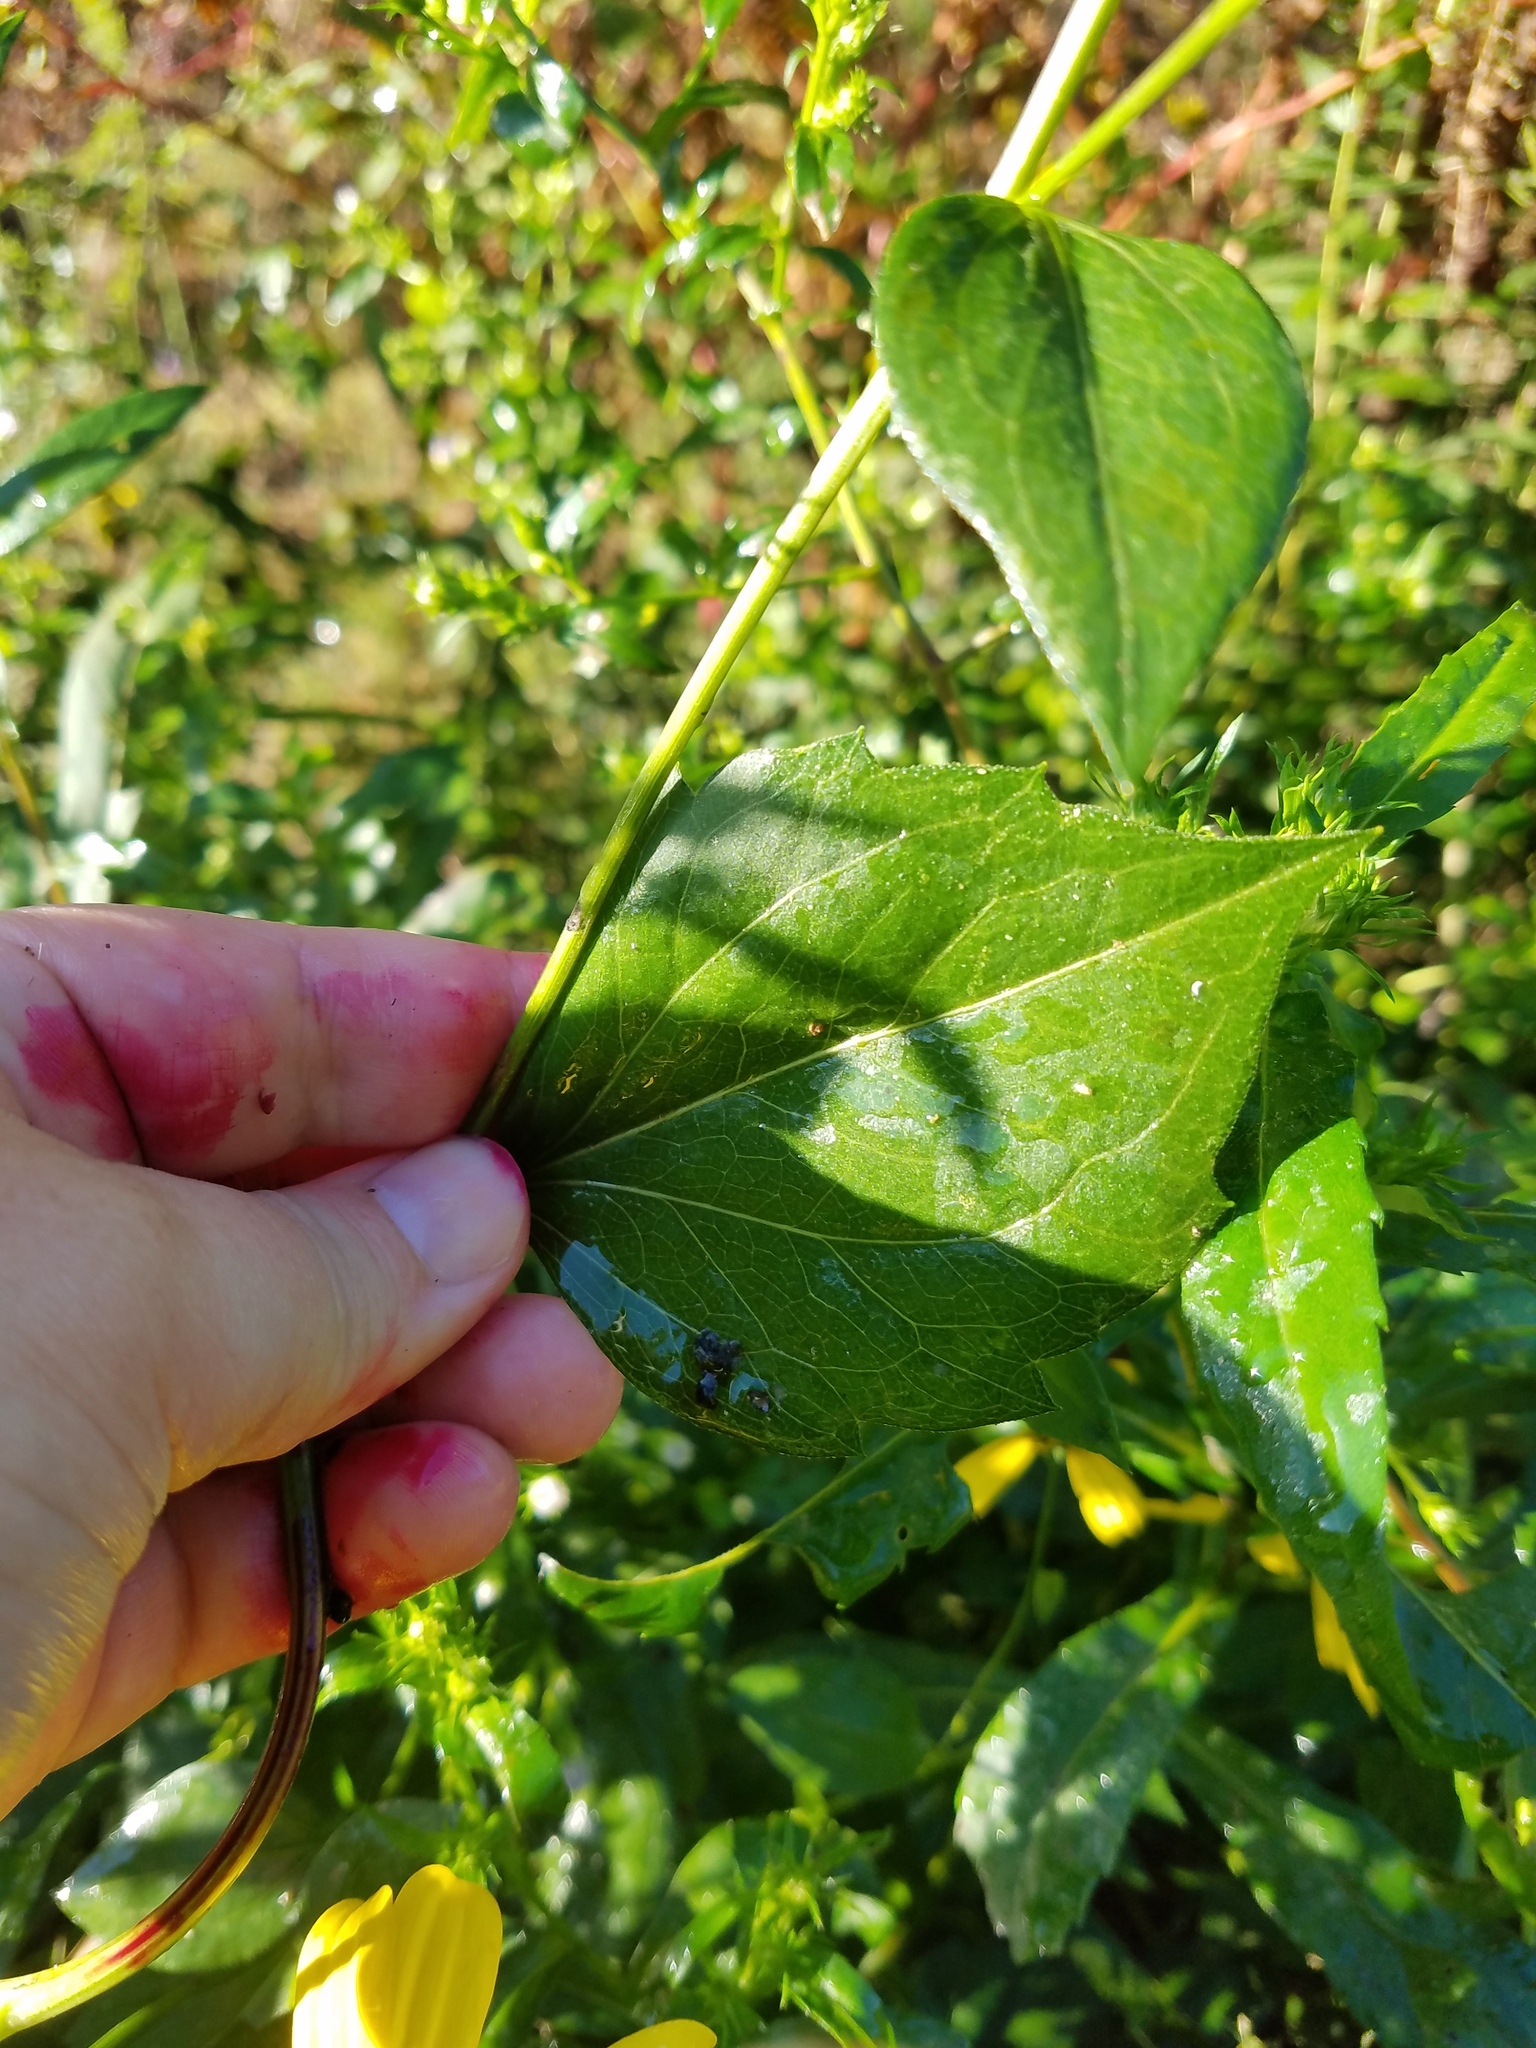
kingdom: Plantae
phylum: Tracheophyta
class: Magnoliopsida
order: Asterales
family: Asteraceae
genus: Rudbeckia
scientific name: Rudbeckia laciniata
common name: Coneflower
